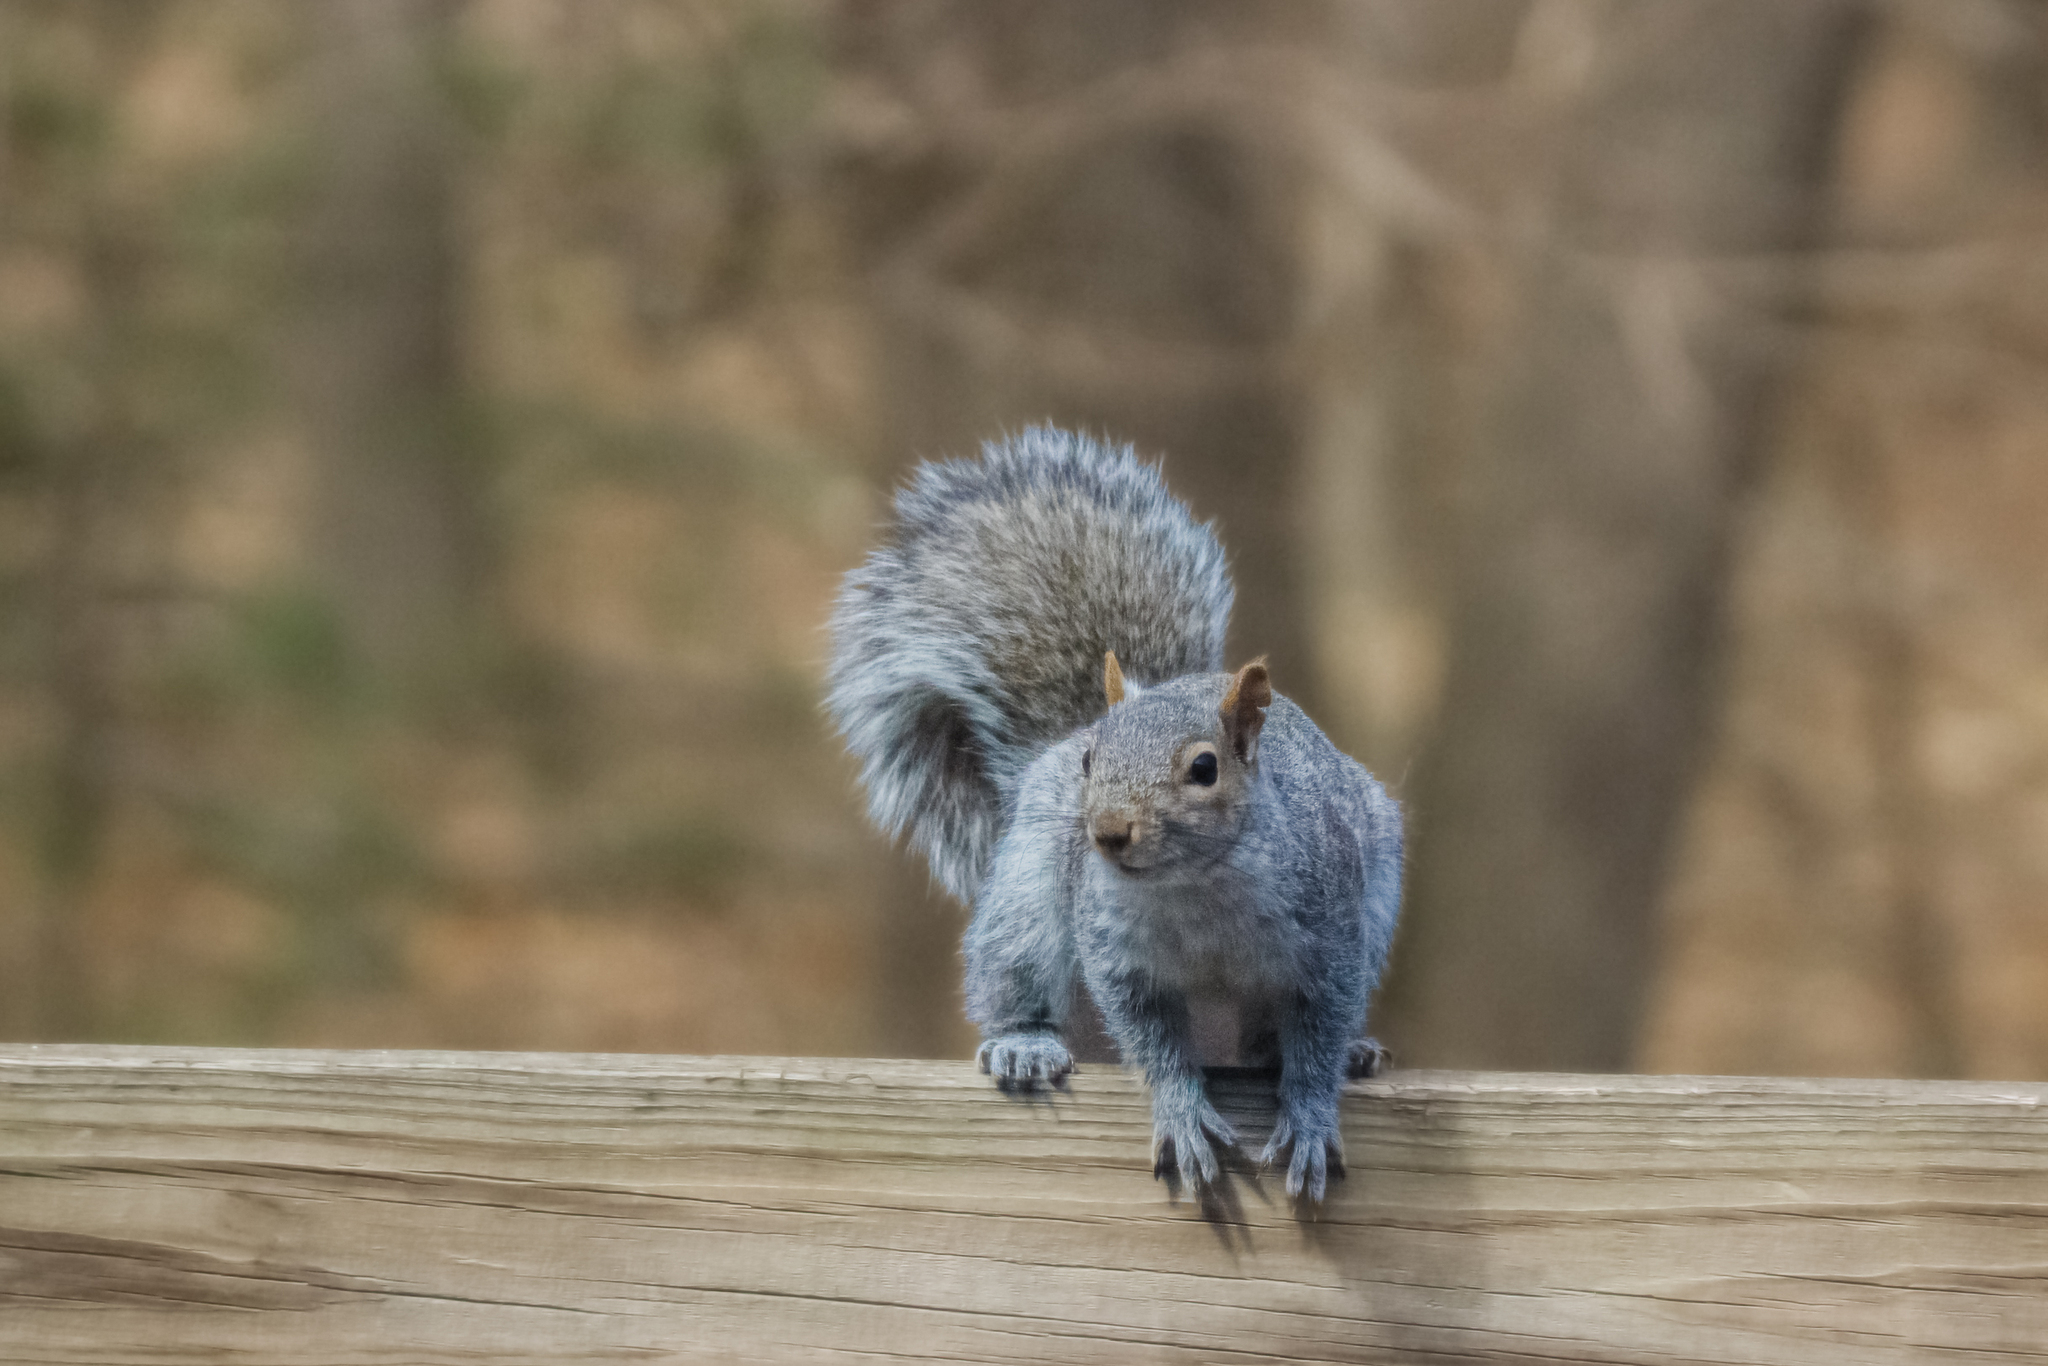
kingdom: Animalia
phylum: Chordata
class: Mammalia
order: Rodentia
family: Sciuridae
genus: Sciurus
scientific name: Sciurus carolinensis
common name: Eastern gray squirrel
